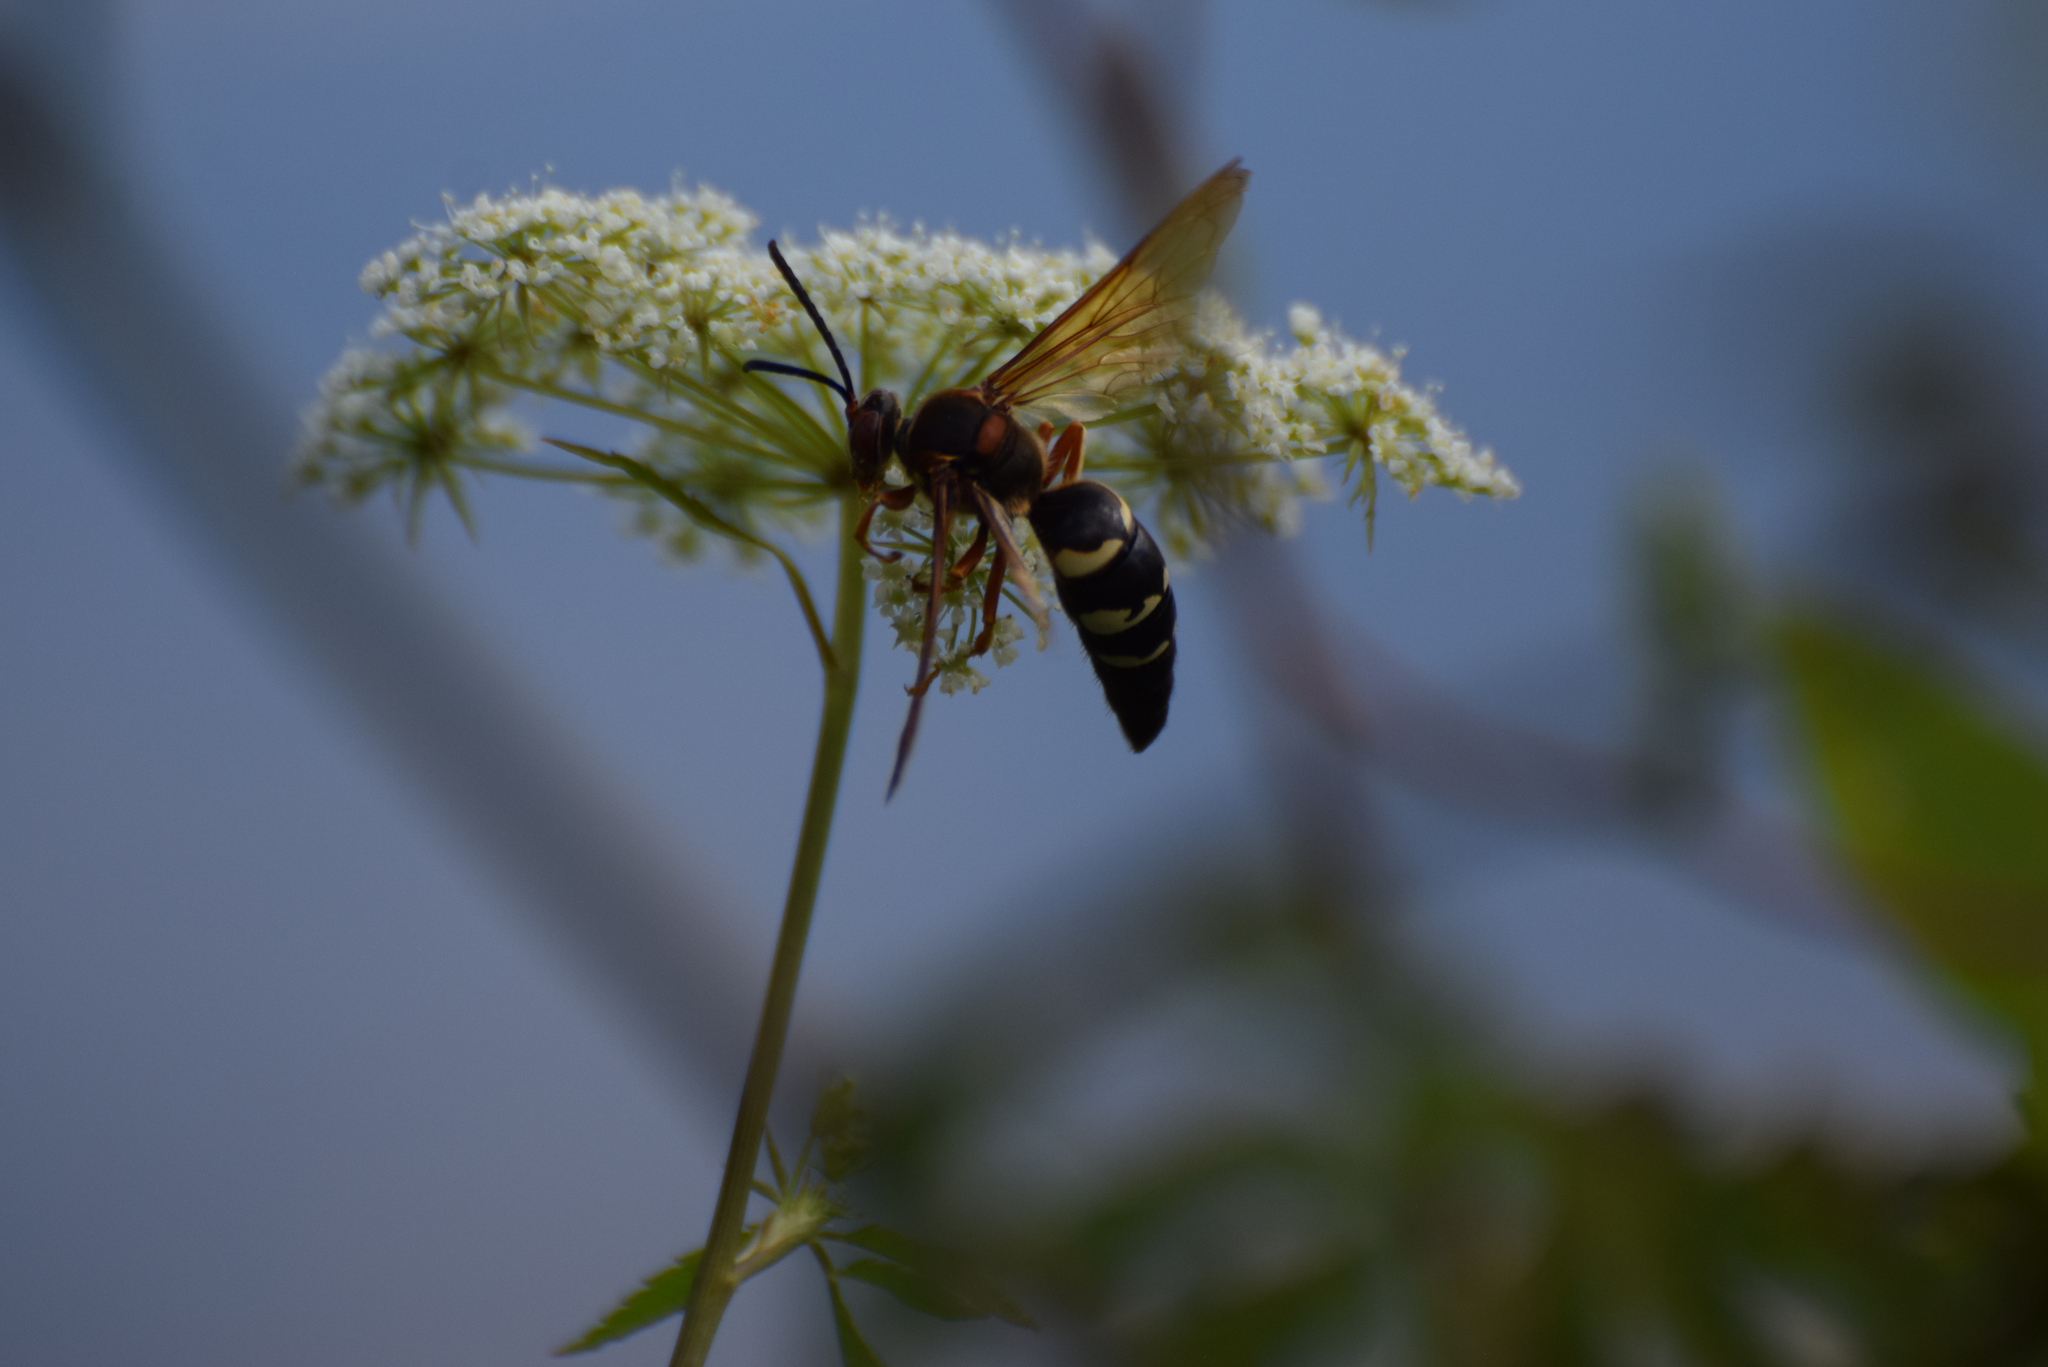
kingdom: Animalia
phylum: Arthropoda
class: Insecta
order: Hymenoptera
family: Crabronidae
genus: Sphecius
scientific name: Sphecius speciosus
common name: Cicada killer
